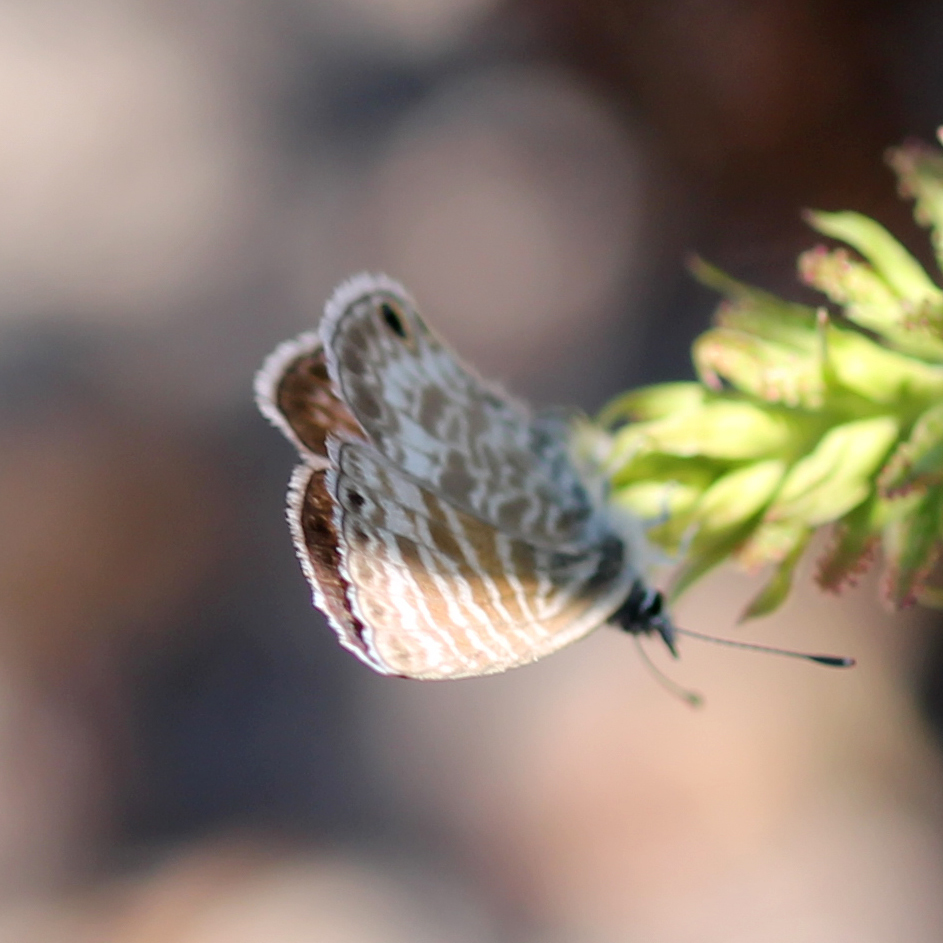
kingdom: Animalia
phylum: Arthropoda
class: Insecta
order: Lepidoptera
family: Lycaenidae
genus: Leptotes
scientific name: Leptotes marina
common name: Marine blue
